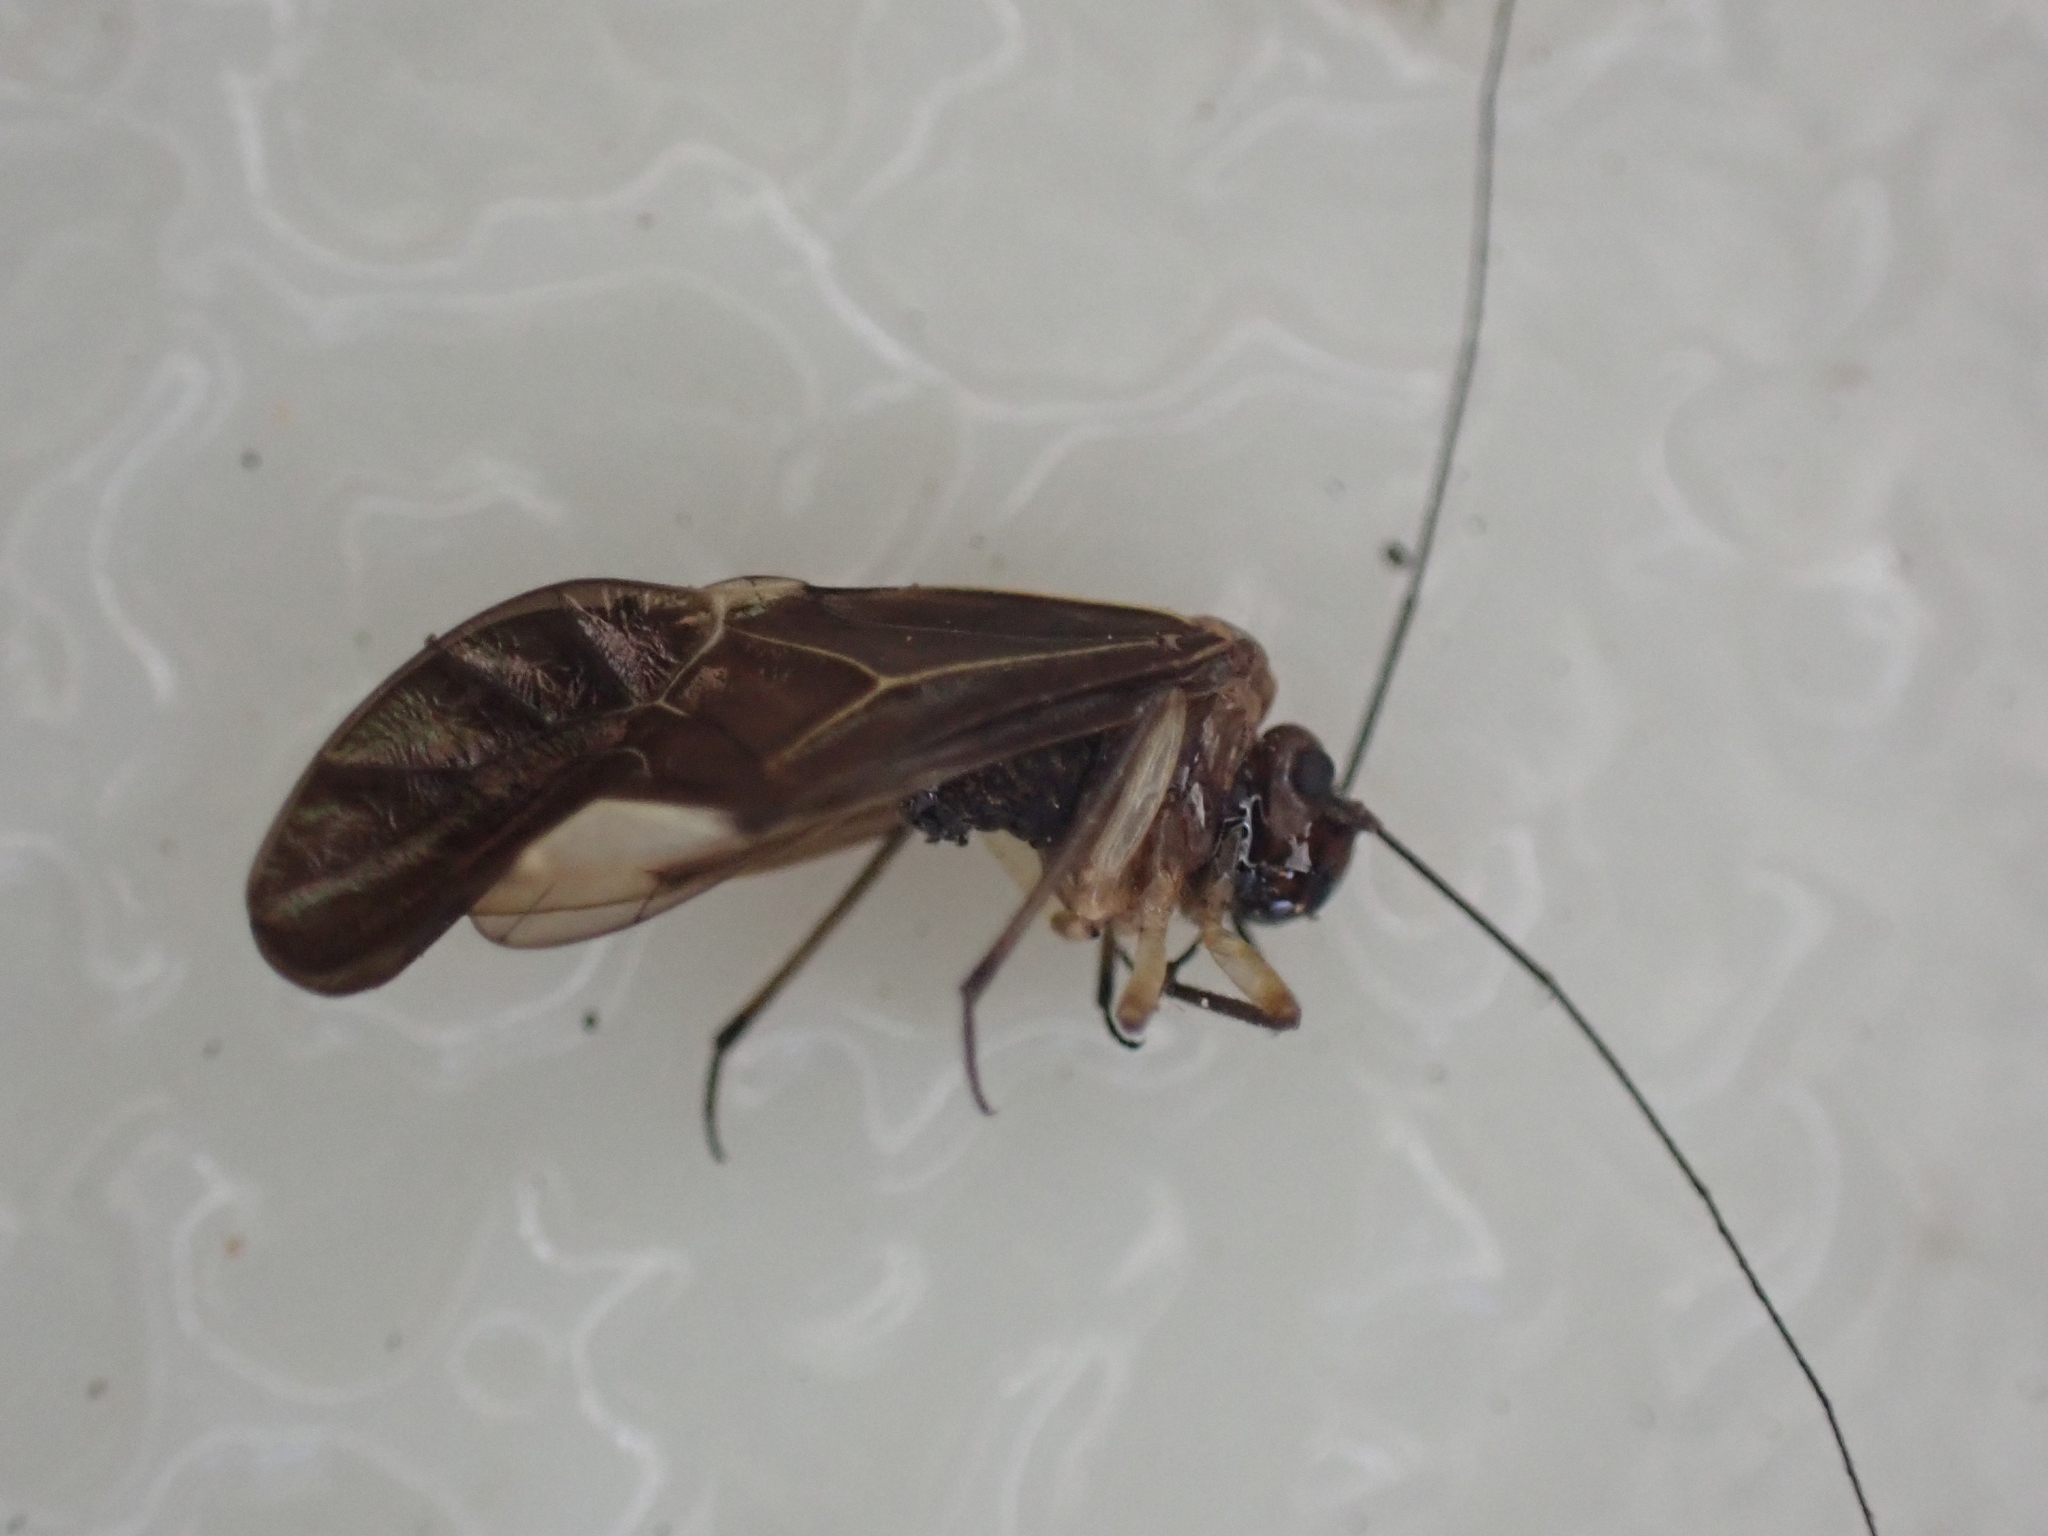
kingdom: Animalia
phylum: Arthropoda
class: Insecta
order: Psocodea
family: Psocidae
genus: Cerastipsocus
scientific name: Cerastipsocus venosus
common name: Tree cattle
